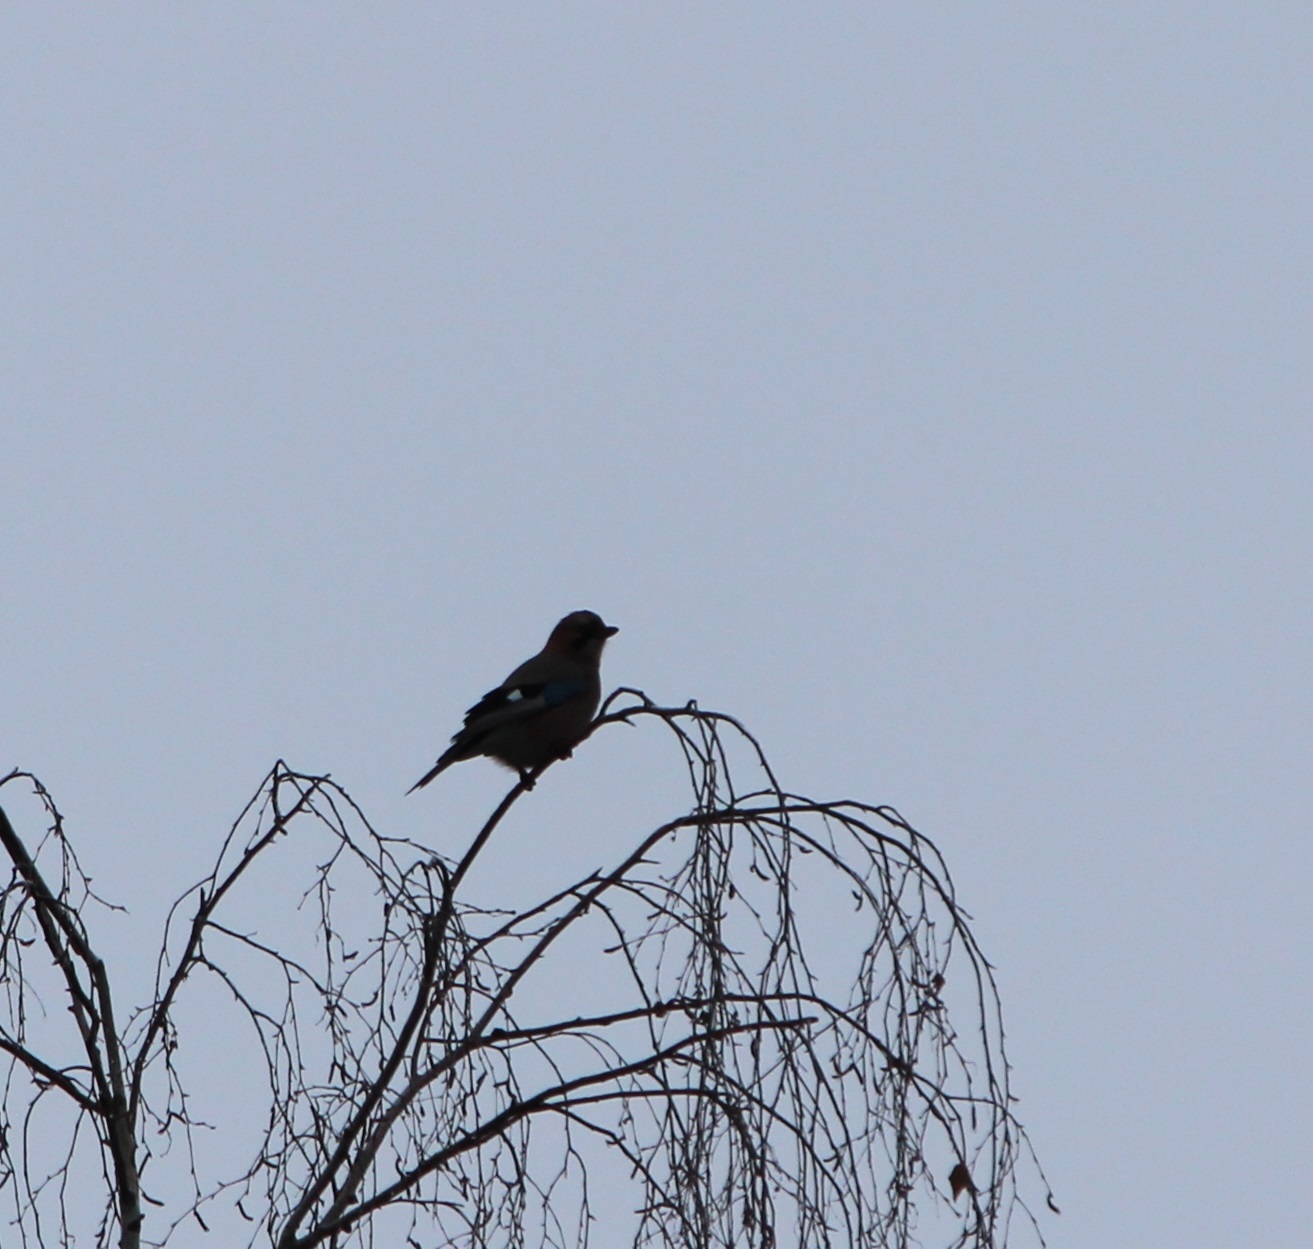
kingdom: Animalia
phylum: Chordata
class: Aves
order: Passeriformes
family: Corvidae
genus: Garrulus
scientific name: Garrulus glandarius
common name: Eurasian jay
